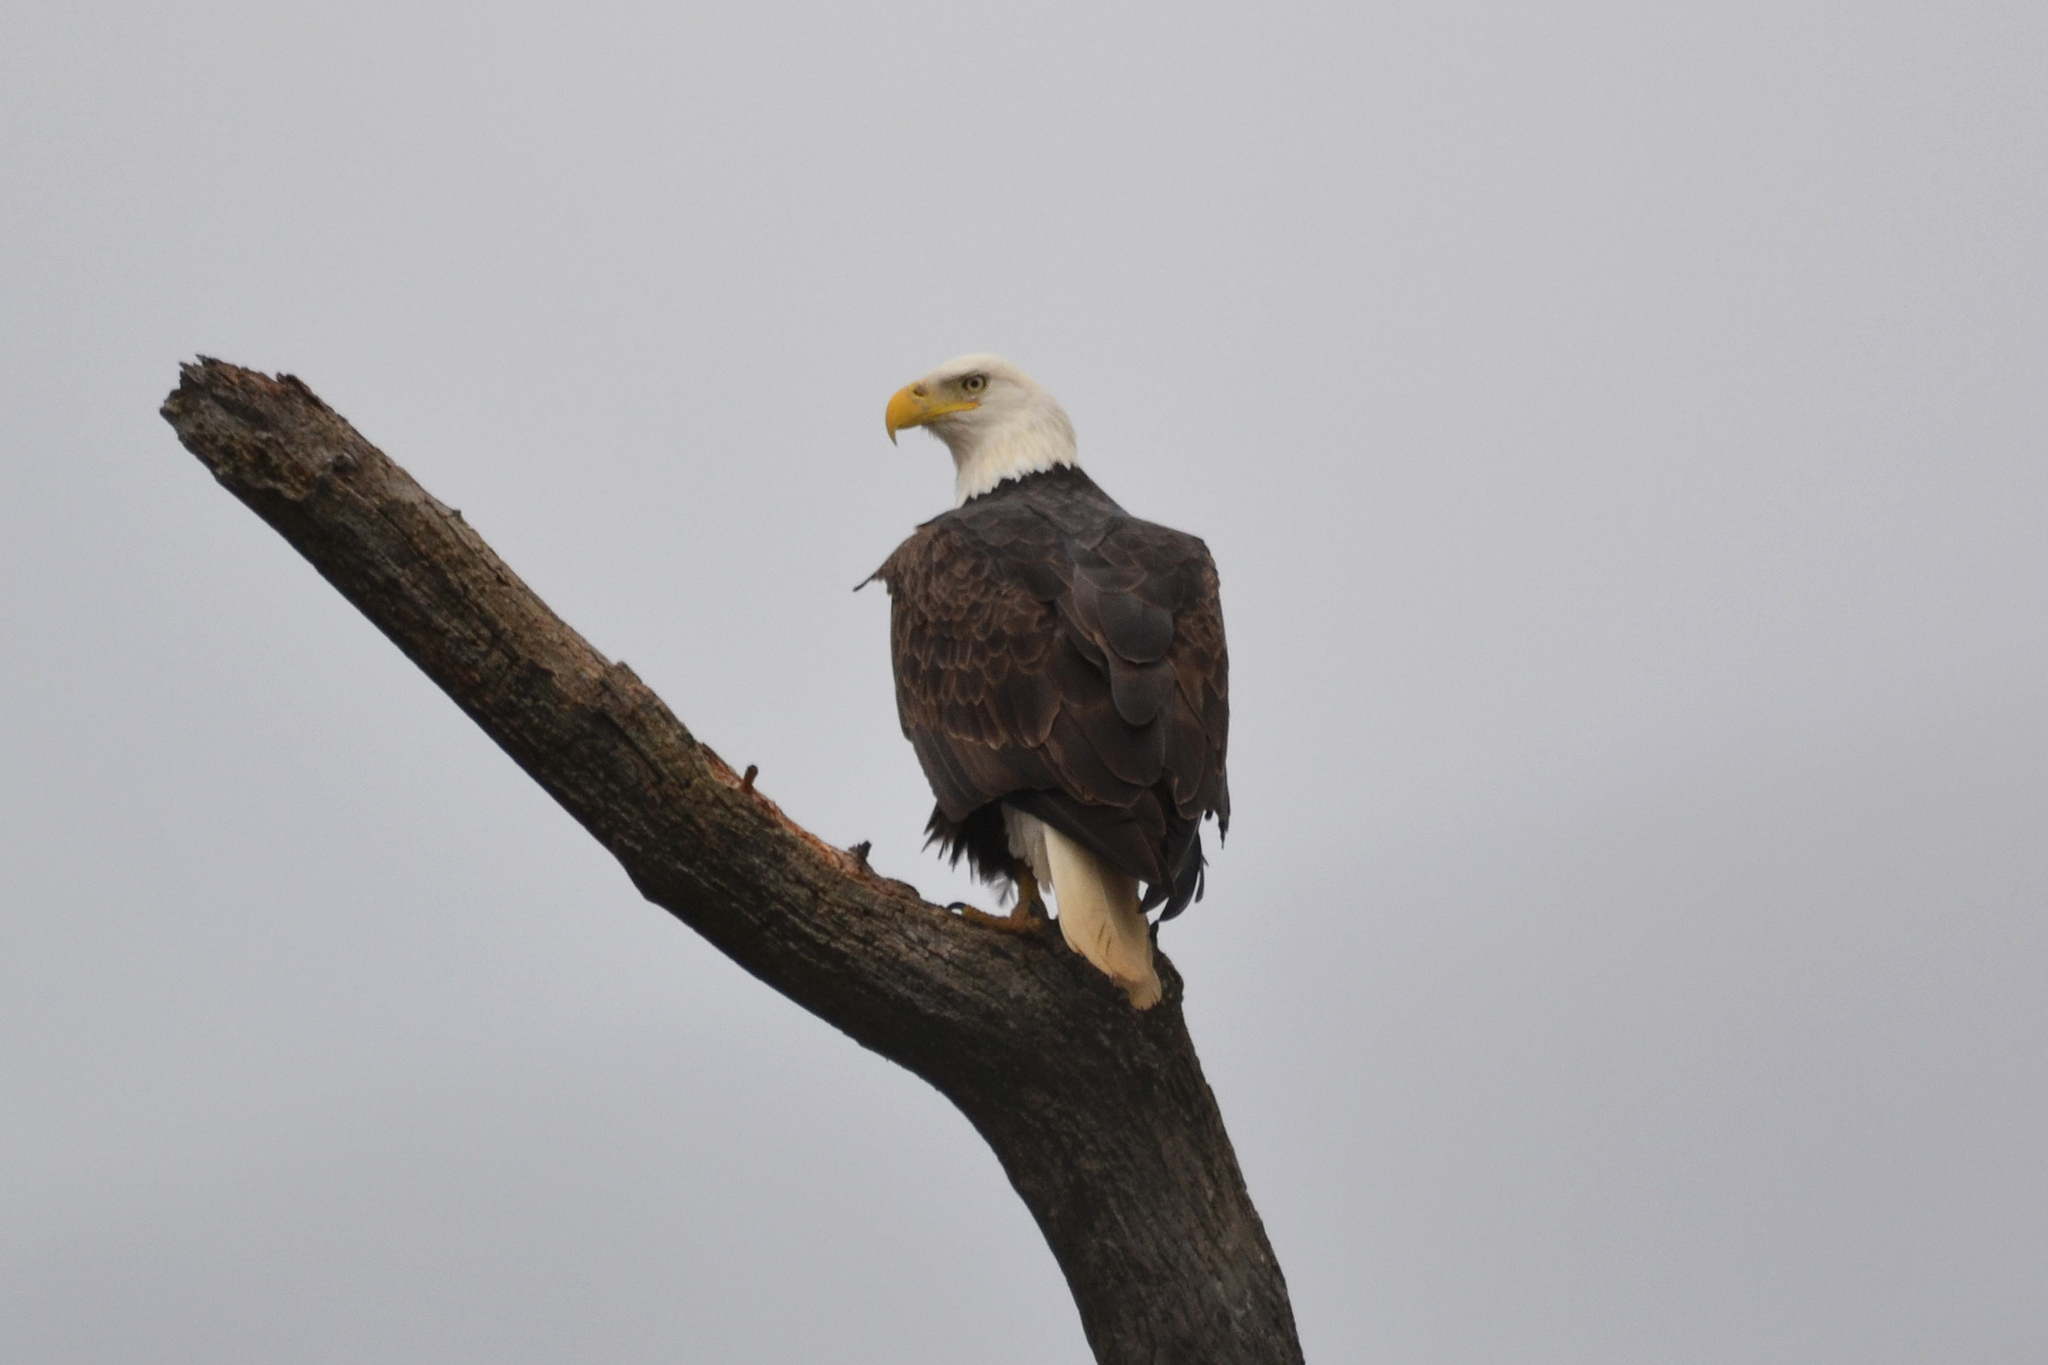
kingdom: Animalia
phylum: Chordata
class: Aves
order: Accipitriformes
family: Accipitridae
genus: Haliaeetus
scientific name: Haliaeetus leucocephalus
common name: Bald eagle
